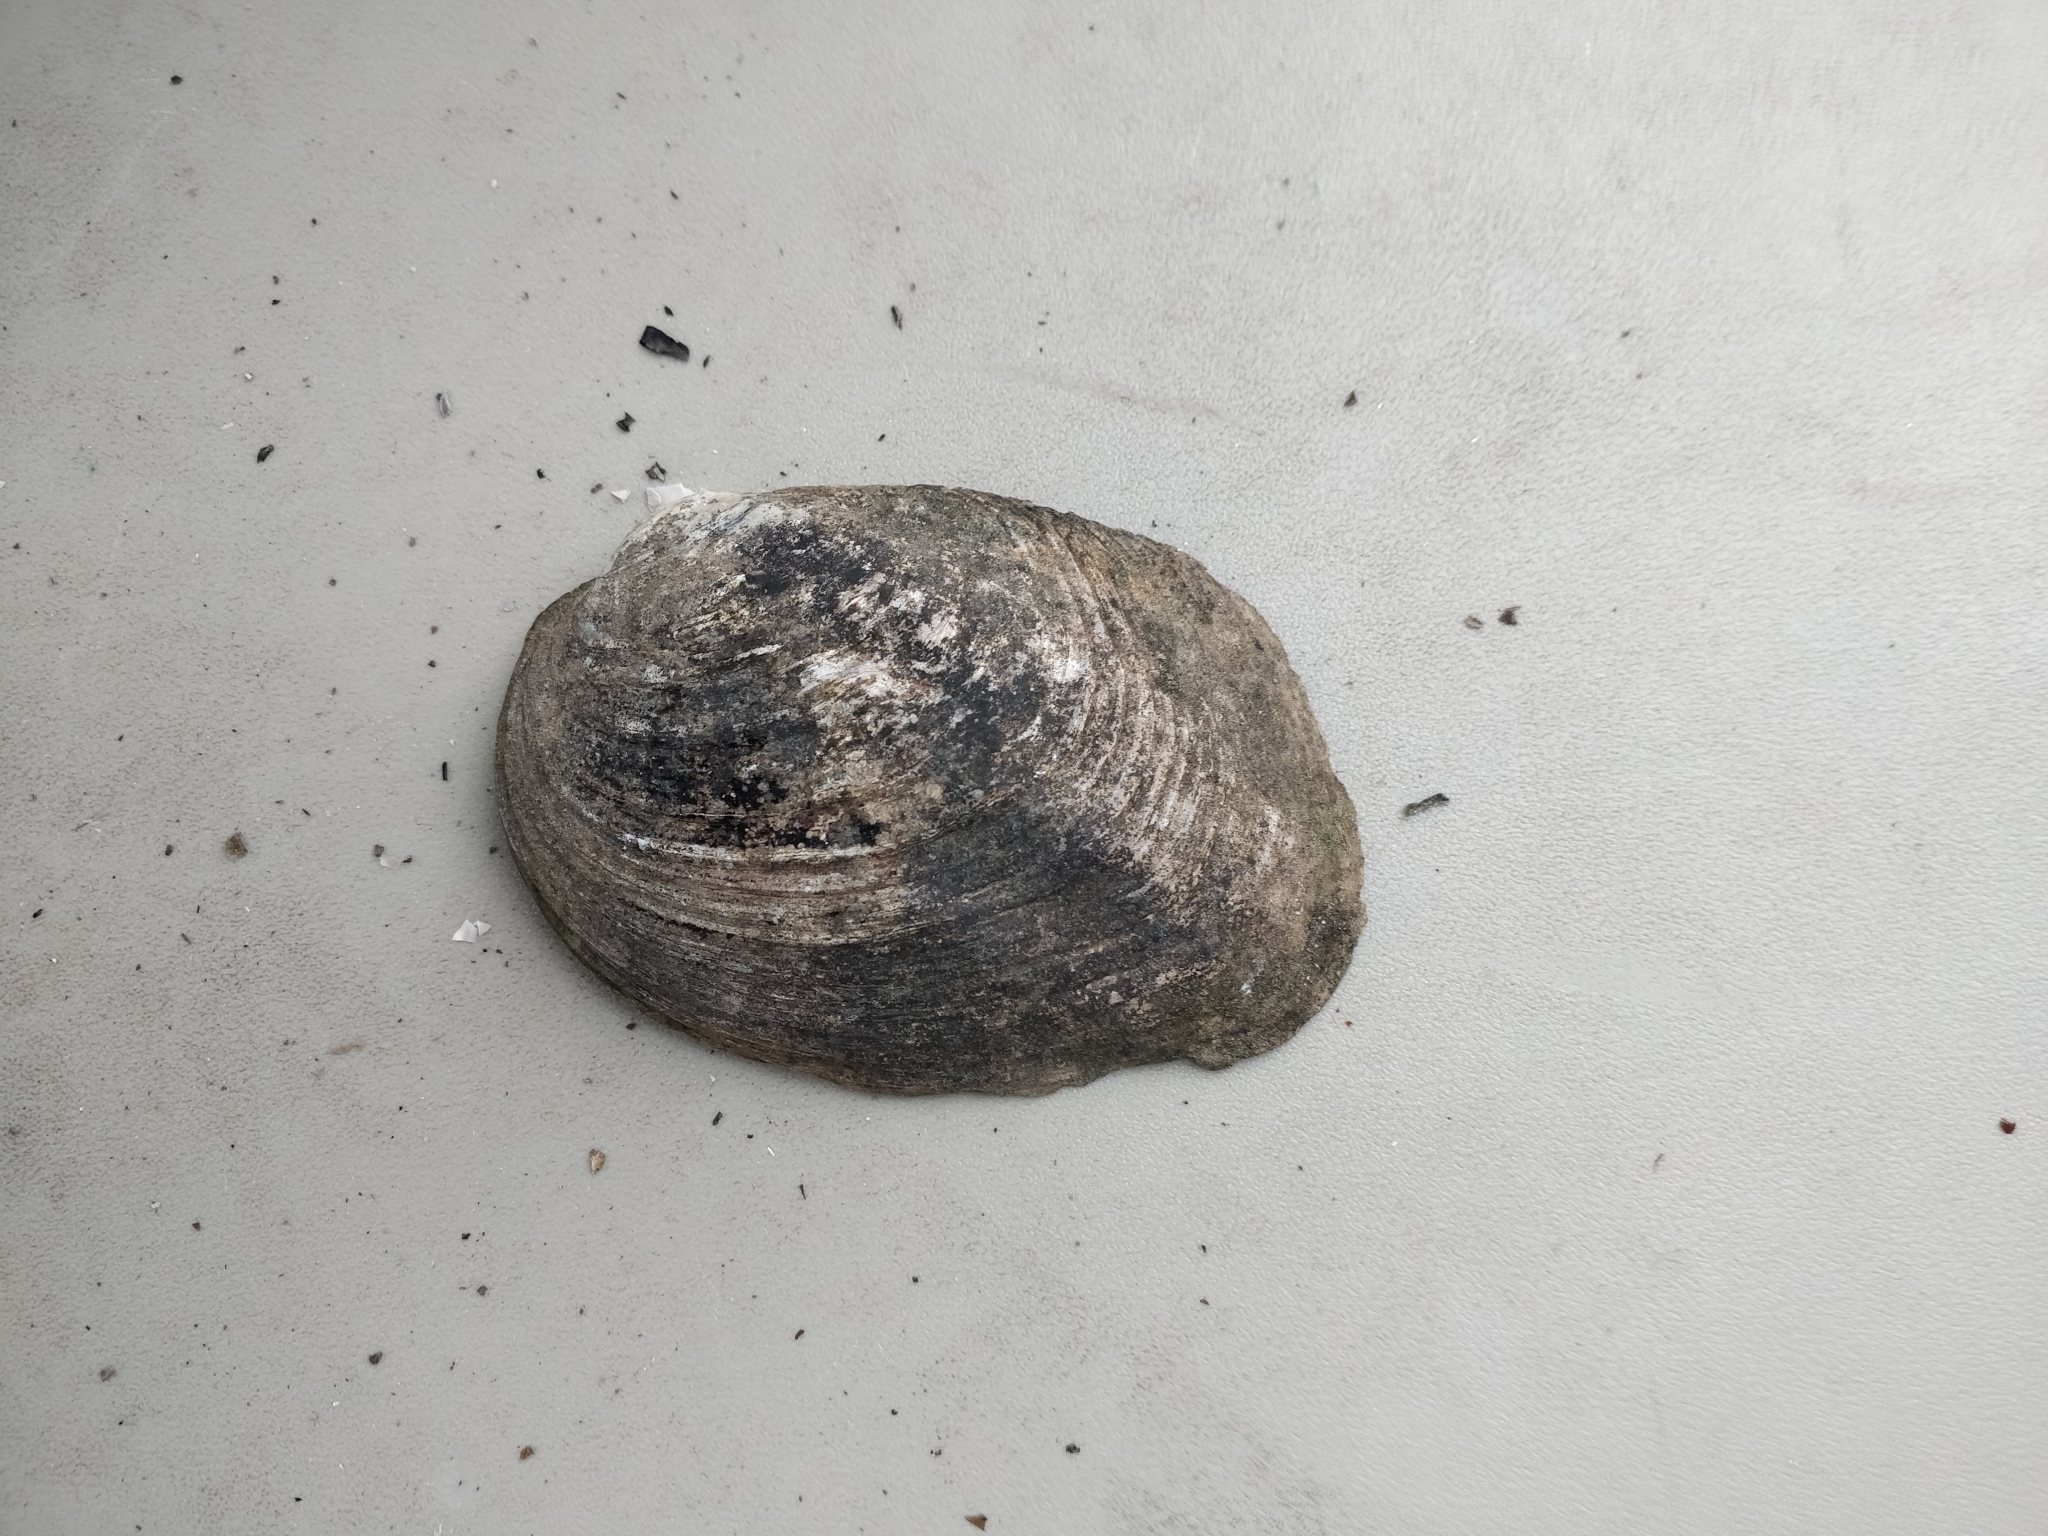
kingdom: Animalia
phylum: Mollusca
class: Bivalvia
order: Unionida
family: Unionidae
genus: Amblema
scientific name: Amblema plicata
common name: Threeridge
